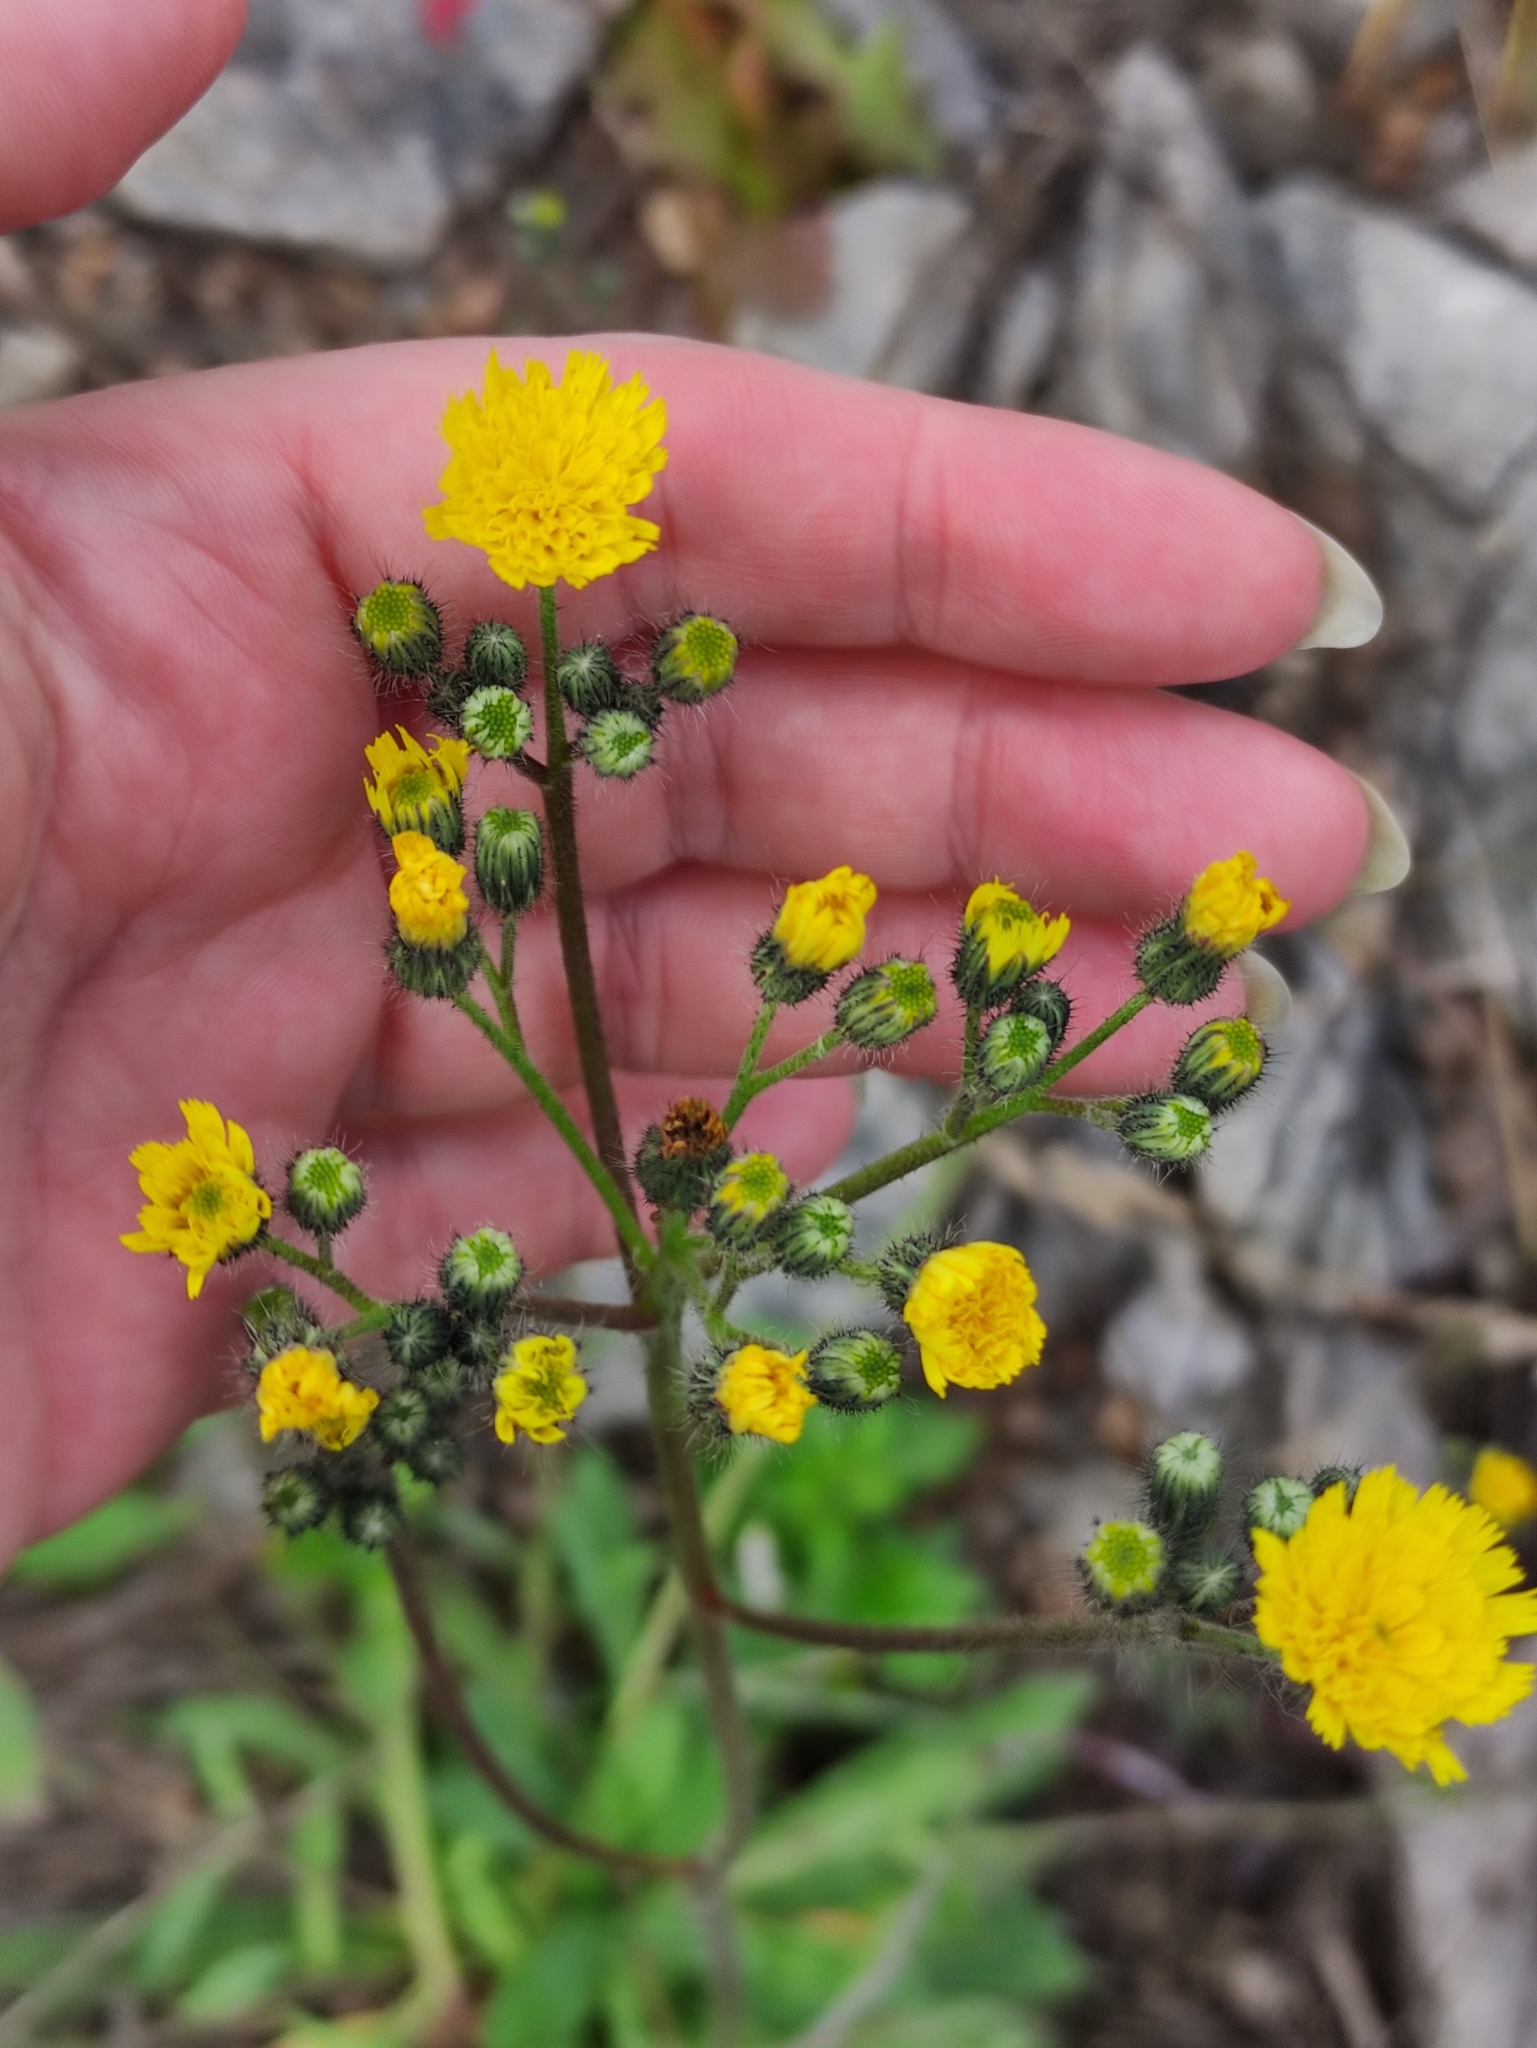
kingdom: Plantae
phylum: Tracheophyta
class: Magnoliopsida
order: Asterales
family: Asteraceae
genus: Pilosella
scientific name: Pilosella
